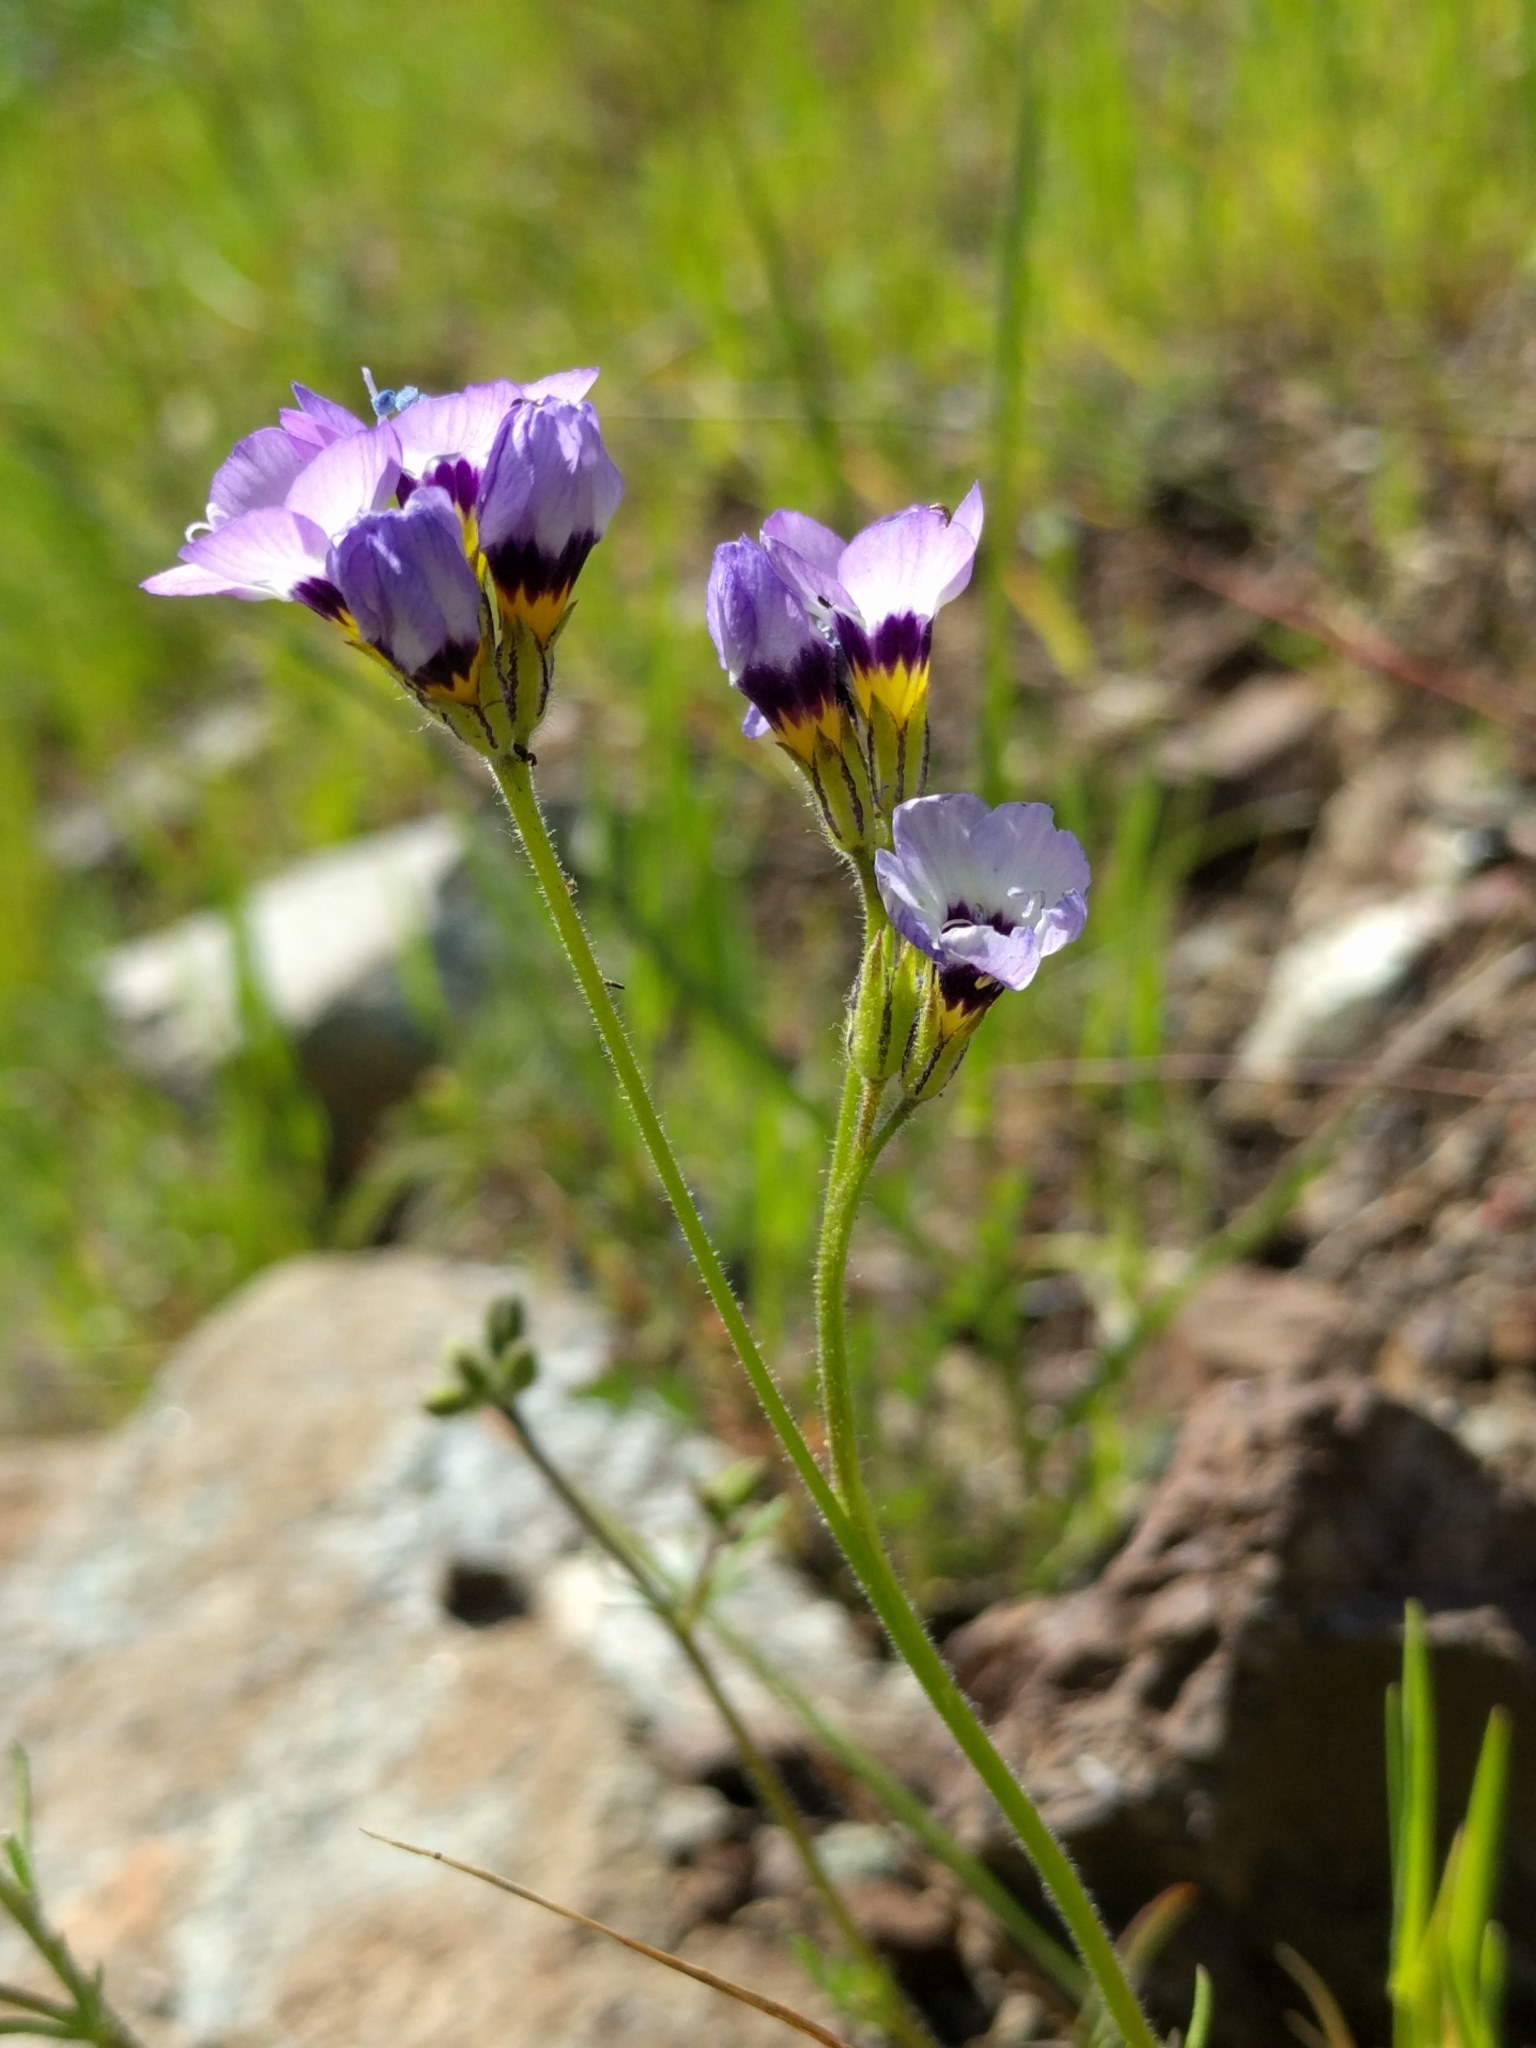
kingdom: Plantae
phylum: Tracheophyta
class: Magnoliopsida
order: Ericales
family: Polemoniaceae
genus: Gilia
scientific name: Gilia tricolor
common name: Bird's-eyes
